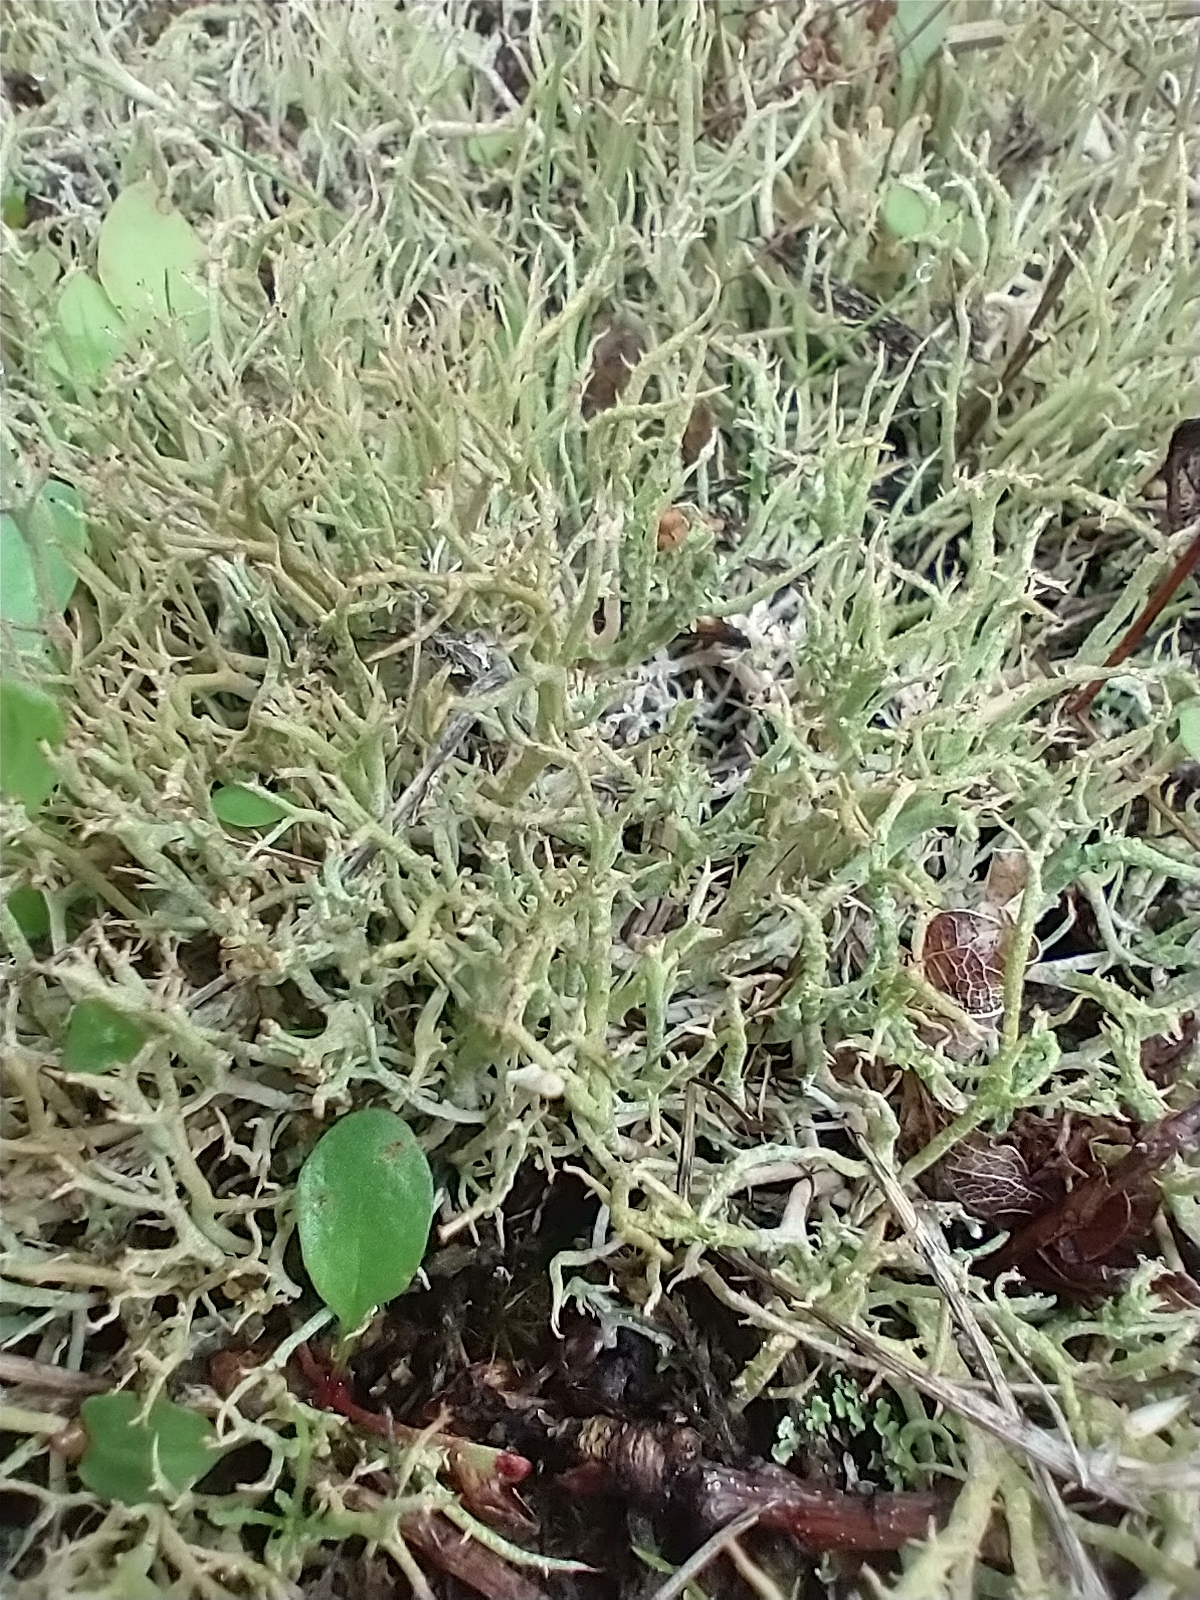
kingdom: Fungi
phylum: Ascomycota
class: Lecanoromycetes
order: Lecanorales
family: Cladoniaceae
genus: Cladonia
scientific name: Cladonia furcata
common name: Many-forked cladonia
